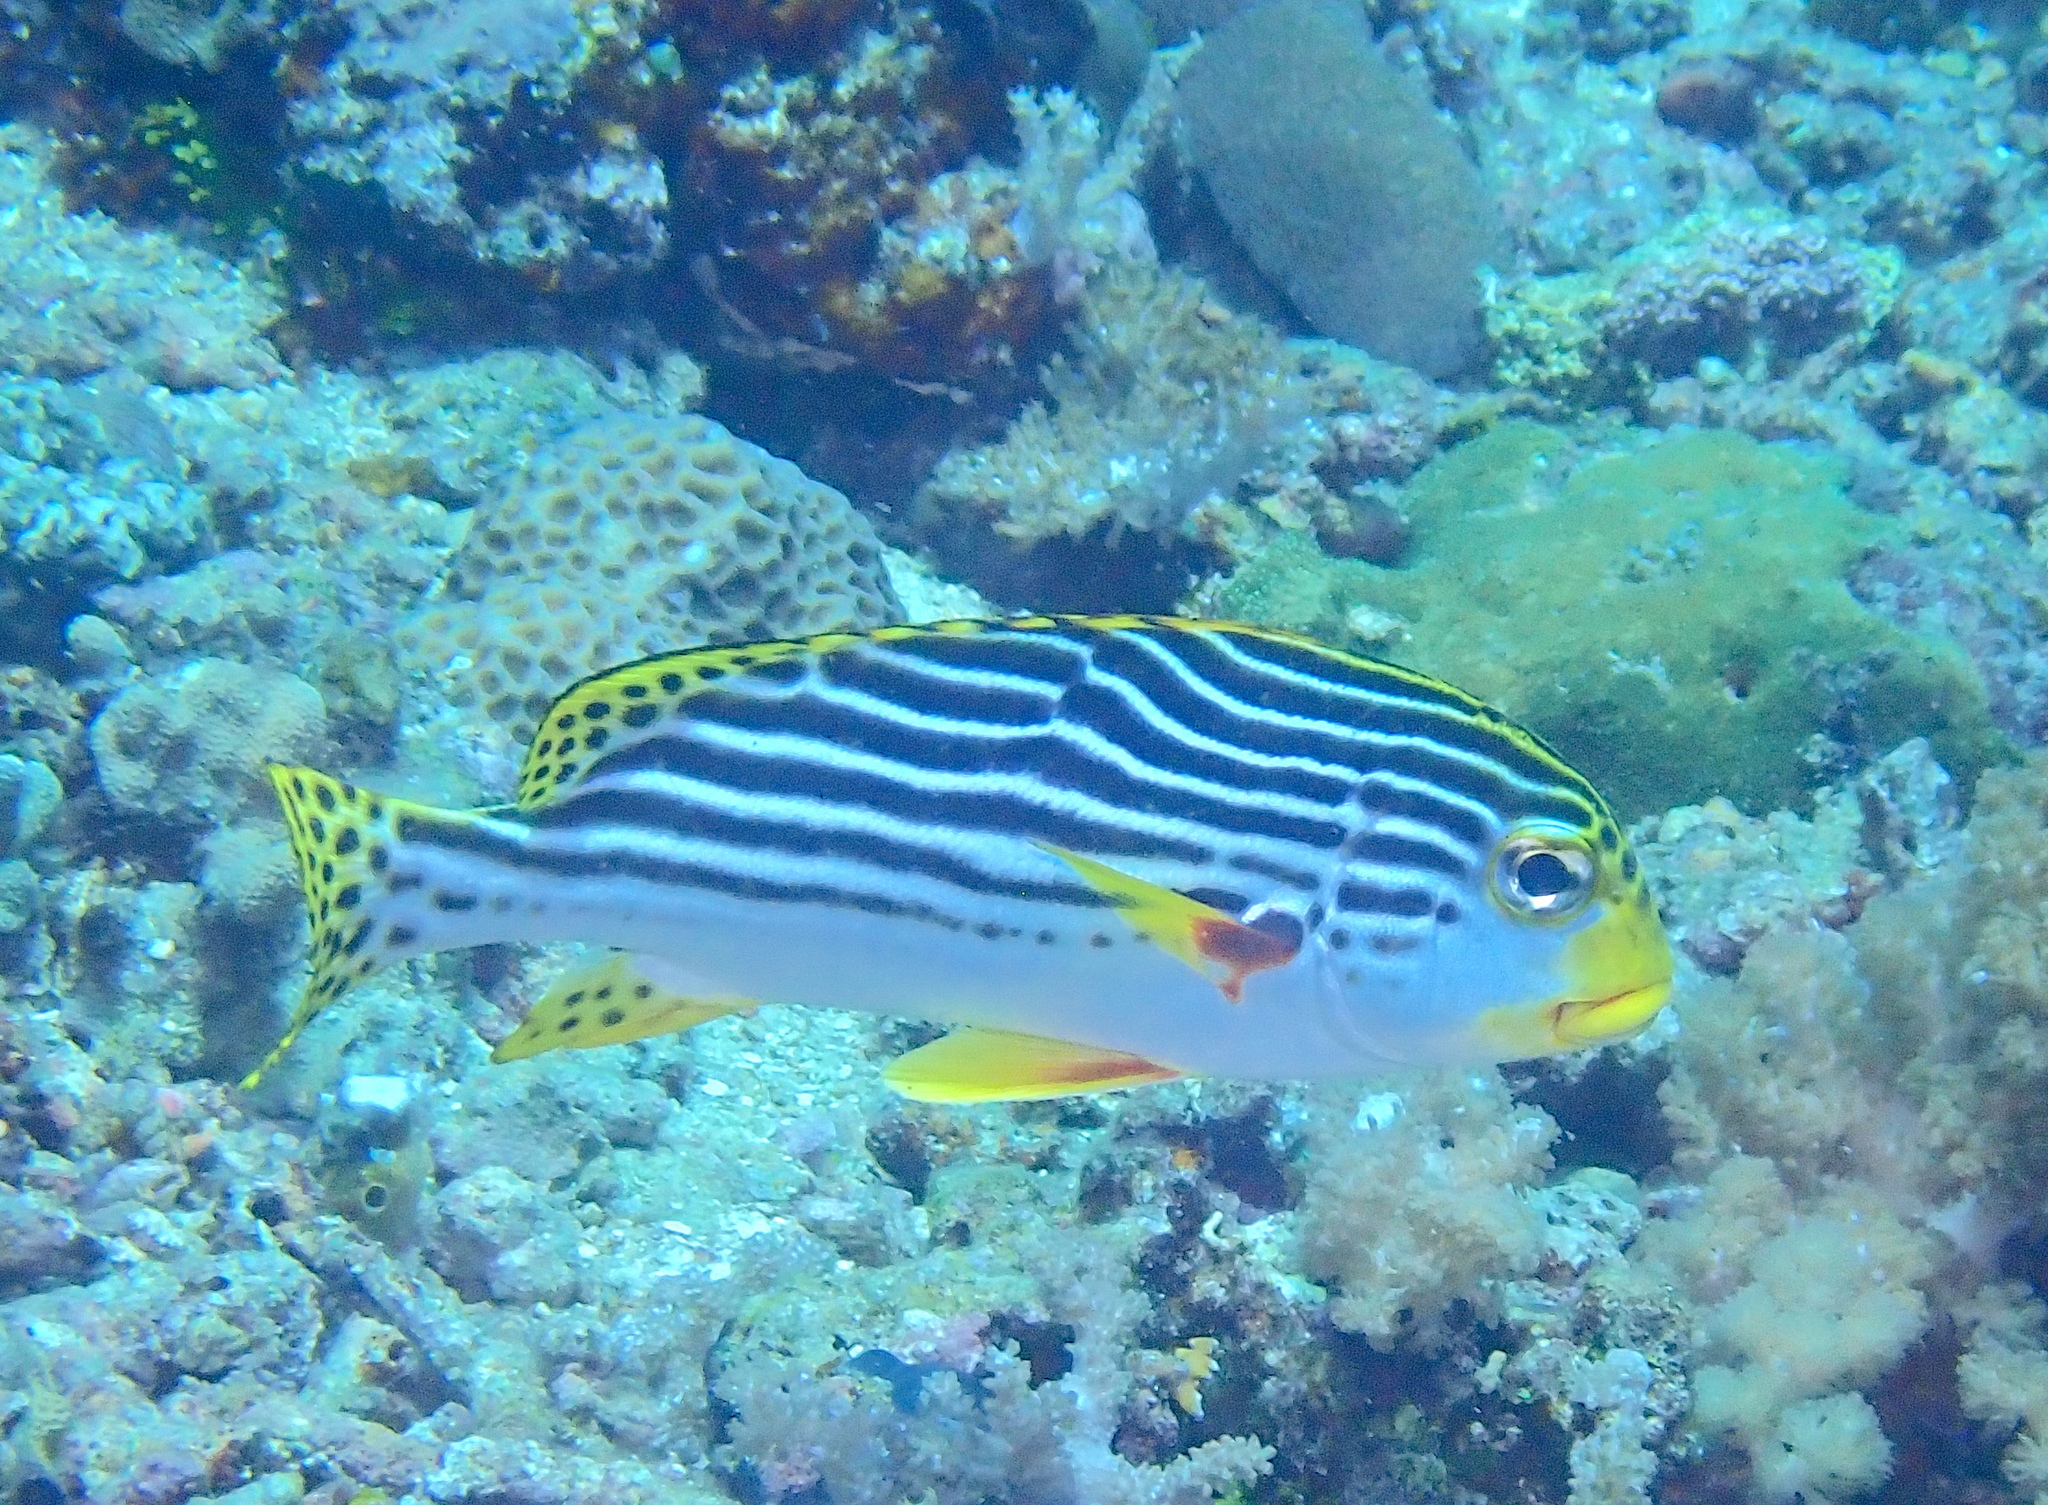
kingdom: Animalia
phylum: Chordata
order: Perciformes
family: Haemulidae
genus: Plectorhinchus
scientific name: Plectorhinchus lineatus
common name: Goldman's sweetlips
